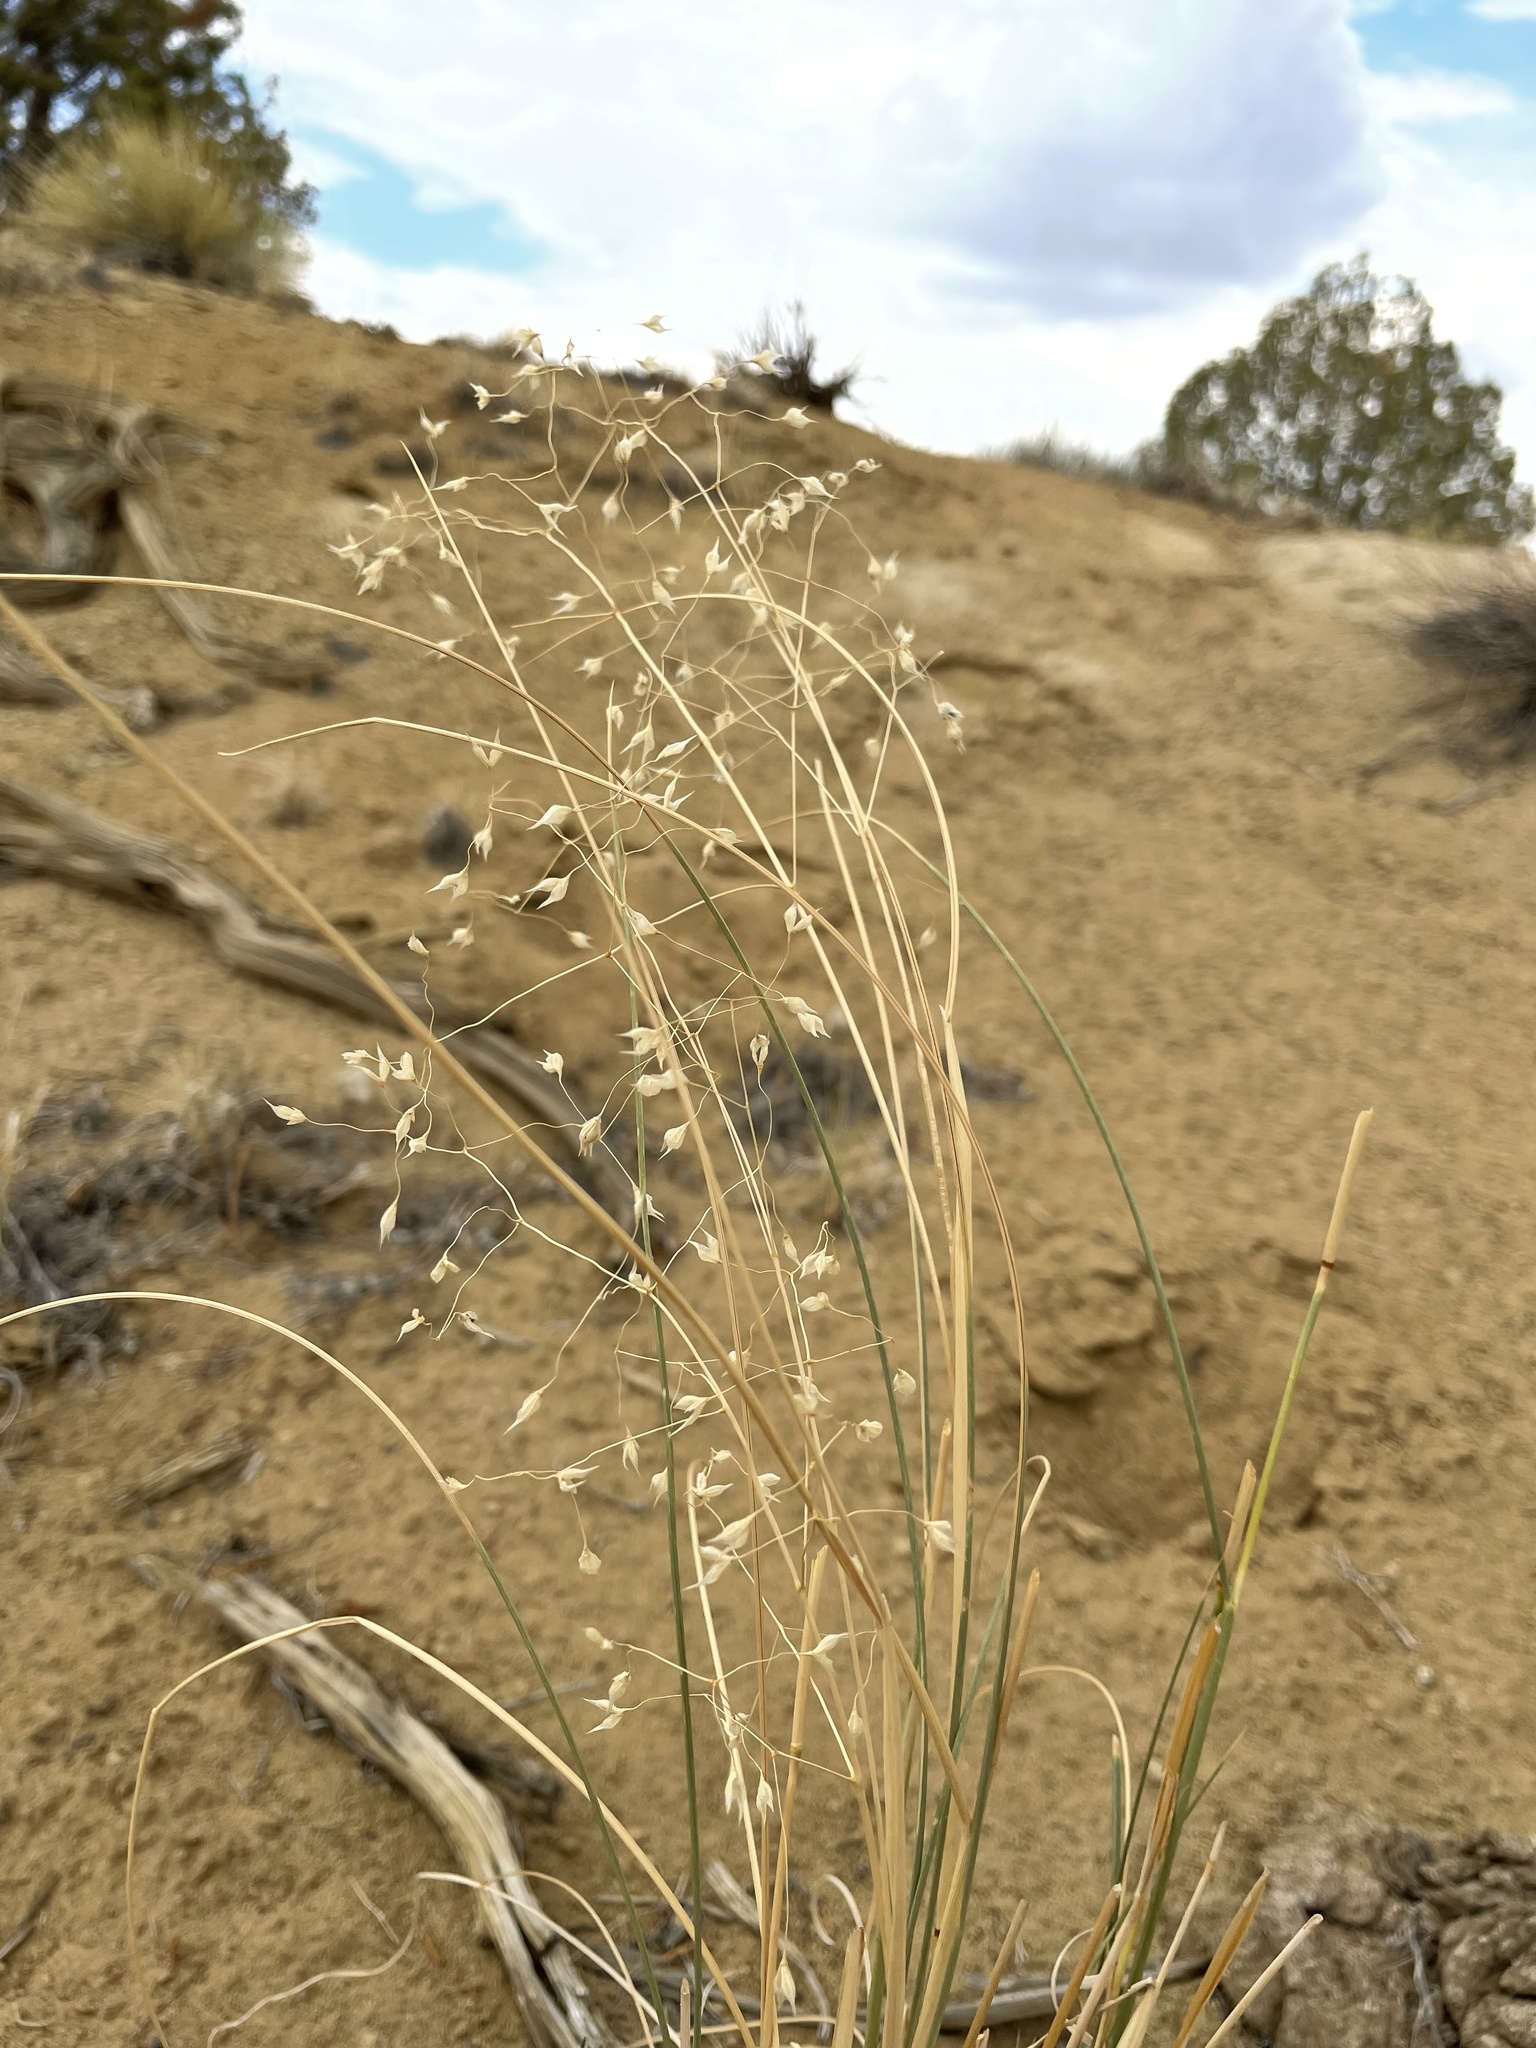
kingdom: Plantae
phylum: Tracheophyta
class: Liliopsida
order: Poales
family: Poaceae
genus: Eriocoma
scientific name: Eriocoma hymenoides
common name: Indian mountain ricegrass
